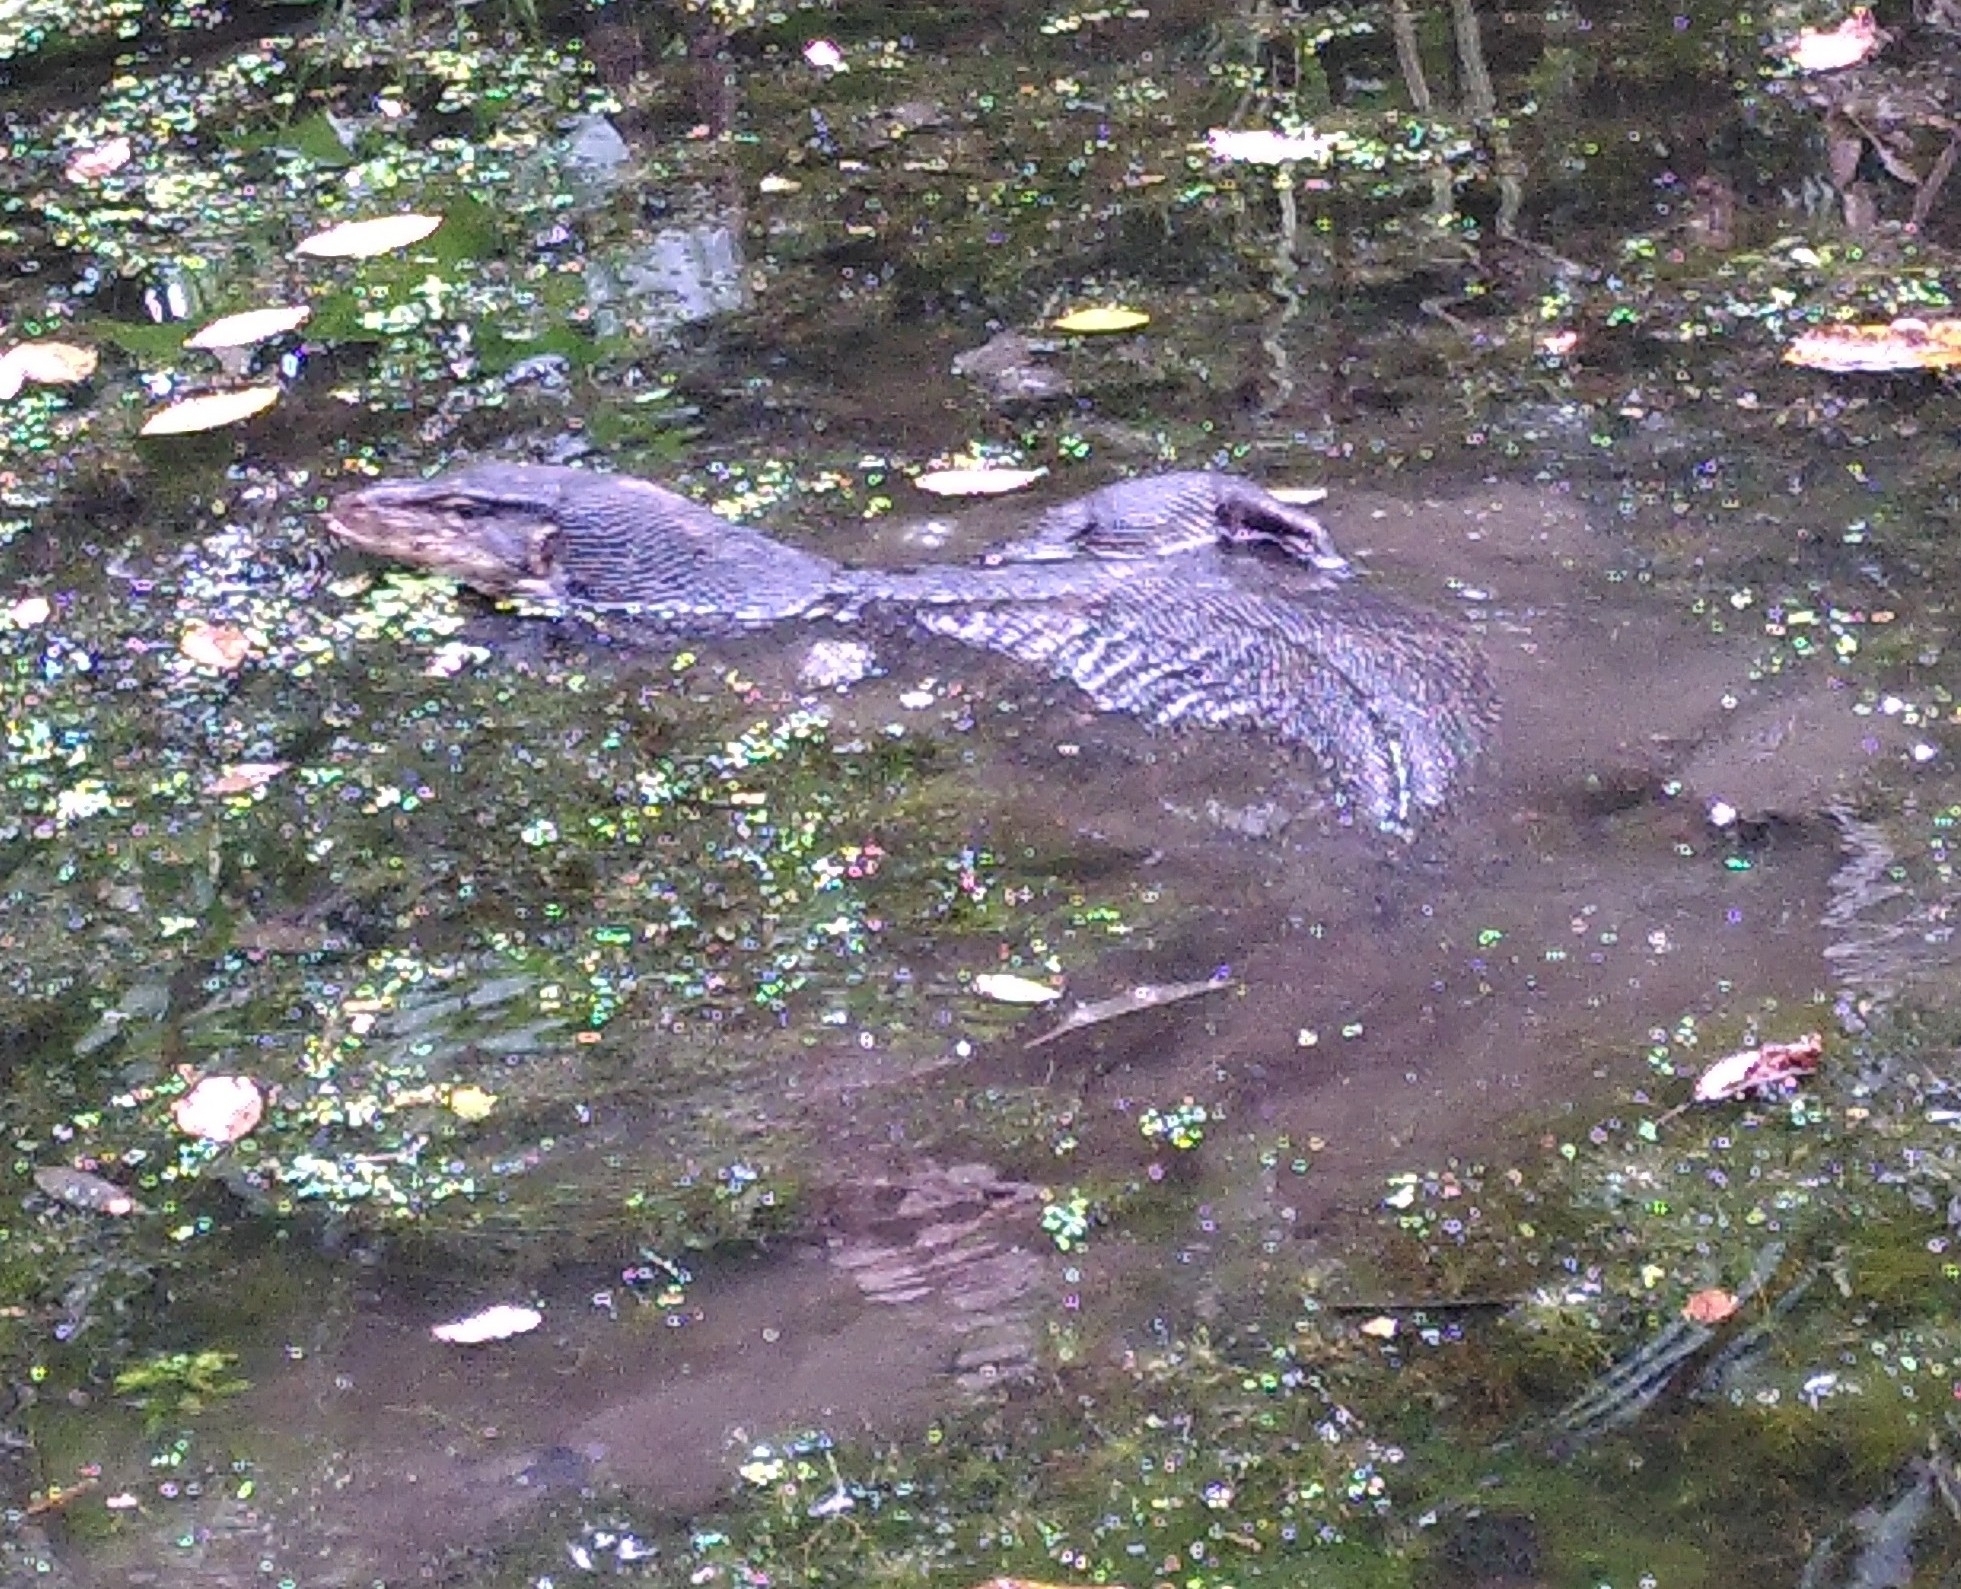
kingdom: Animalia
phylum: Chordata
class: Squamata
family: Varanidae
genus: Varanus
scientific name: Varanus salvator
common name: Common water monitor
